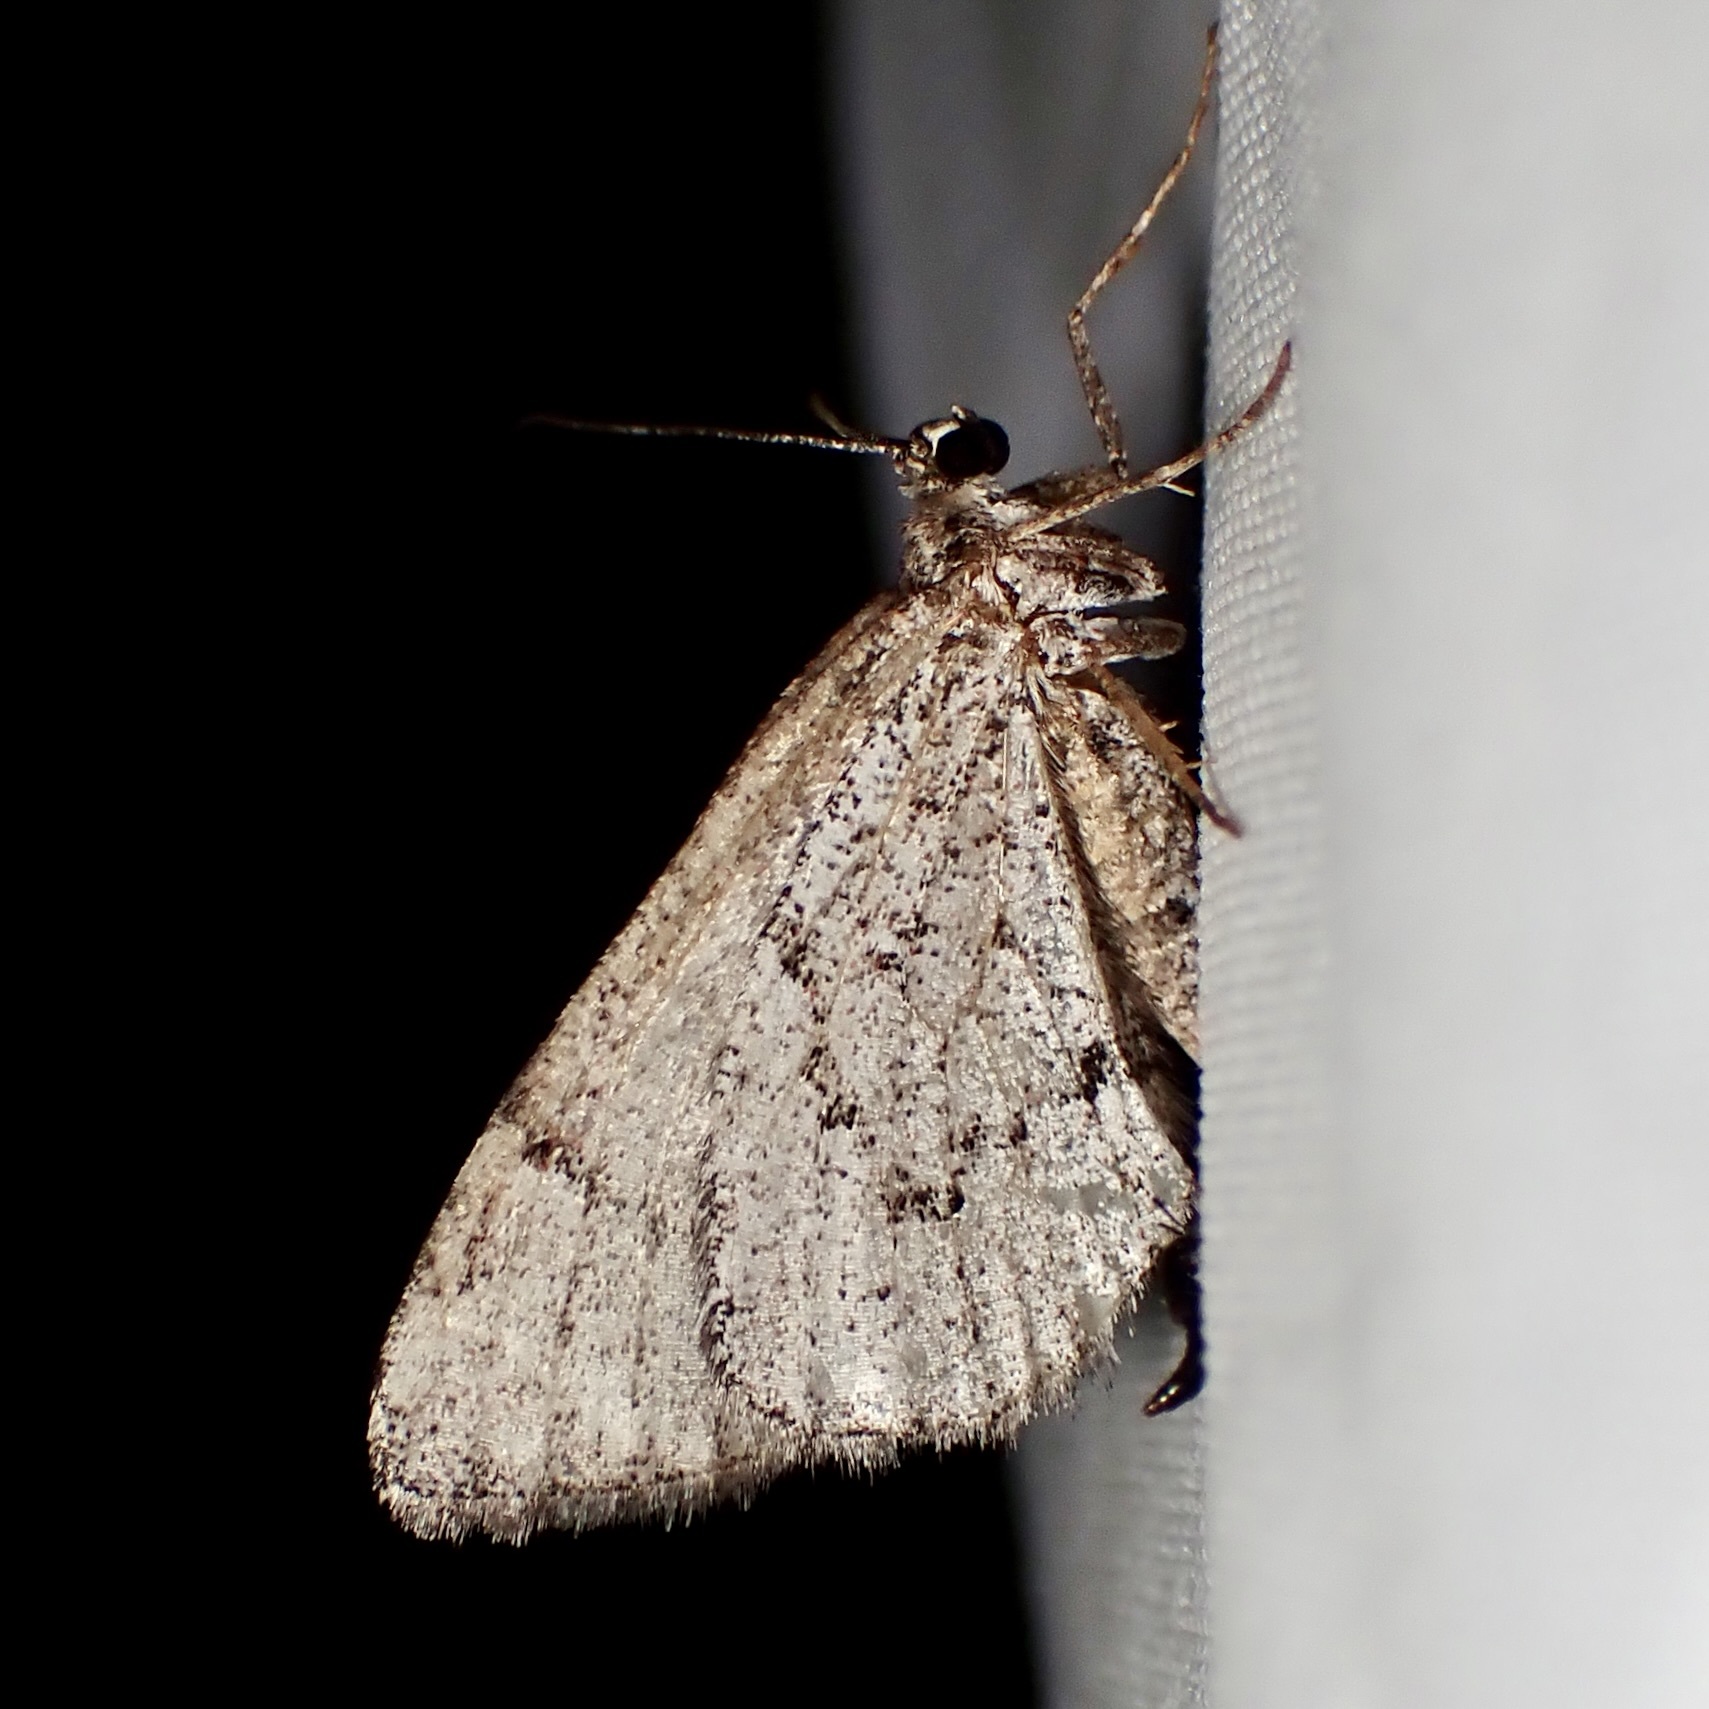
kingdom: Animalia
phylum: Arthropoda
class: Insecta
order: Lepidoptera
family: Geometridae
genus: Stamnodes
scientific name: Stamnodes modocata
